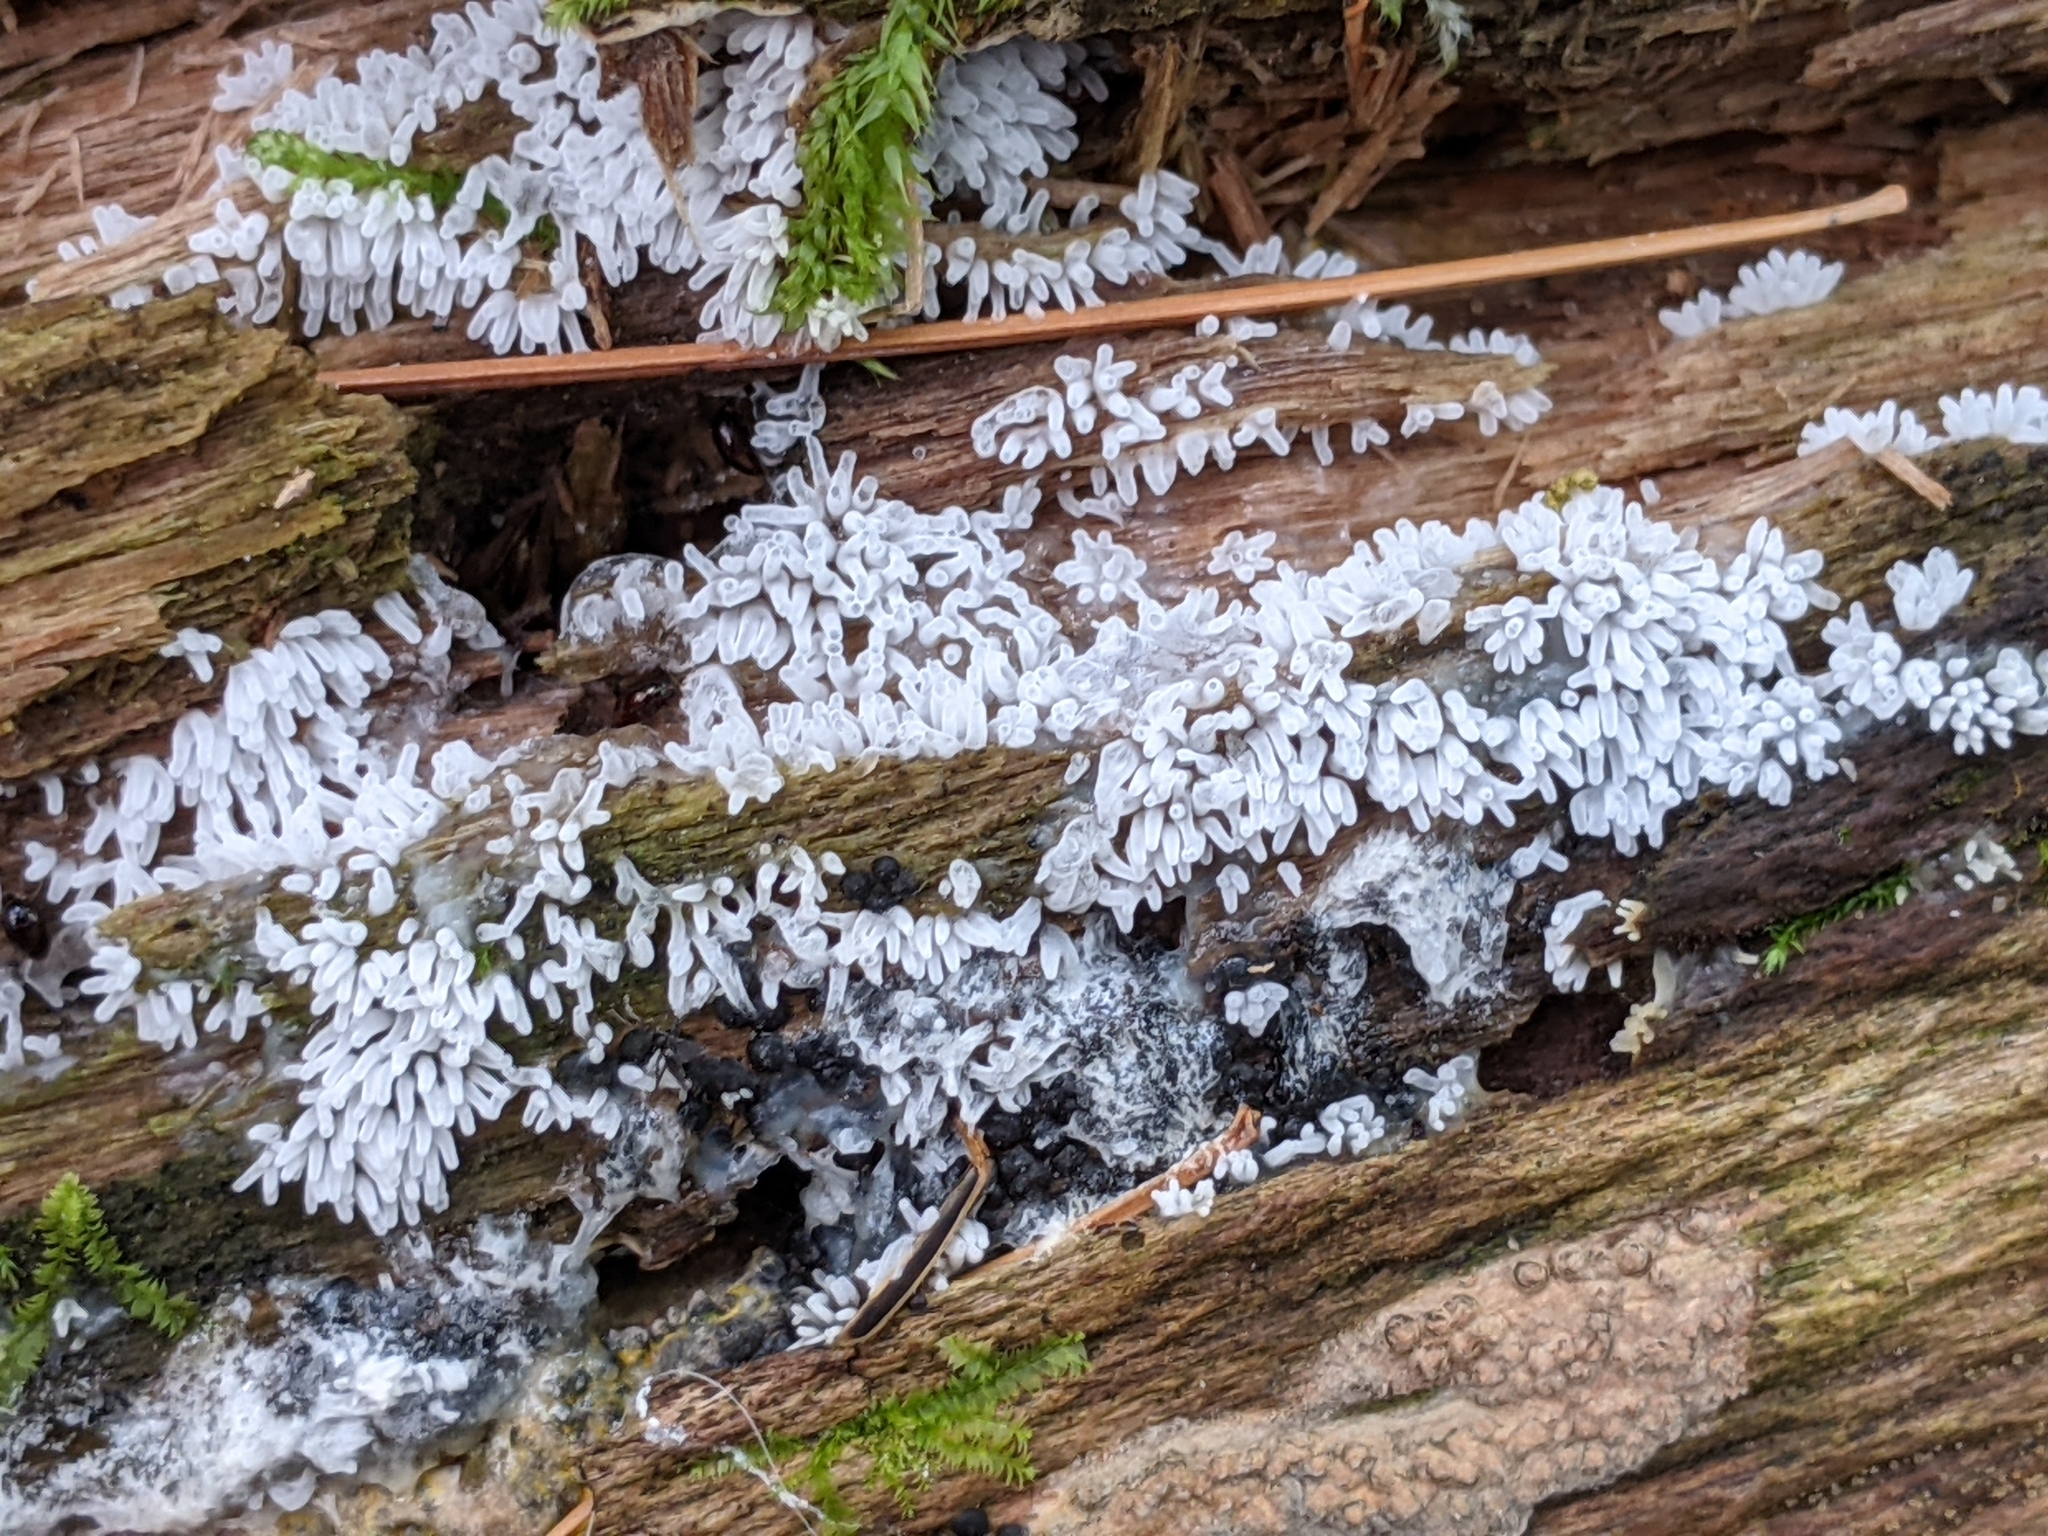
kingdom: Protozoa
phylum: Mycetozoa
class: Protosteliomycetes
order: Ceratiomyxales
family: Ceratiomyxaceae
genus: Ceratiomyxa
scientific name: Ceratiomyxa fruticulosa
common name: Honeycomb coral slime mold
